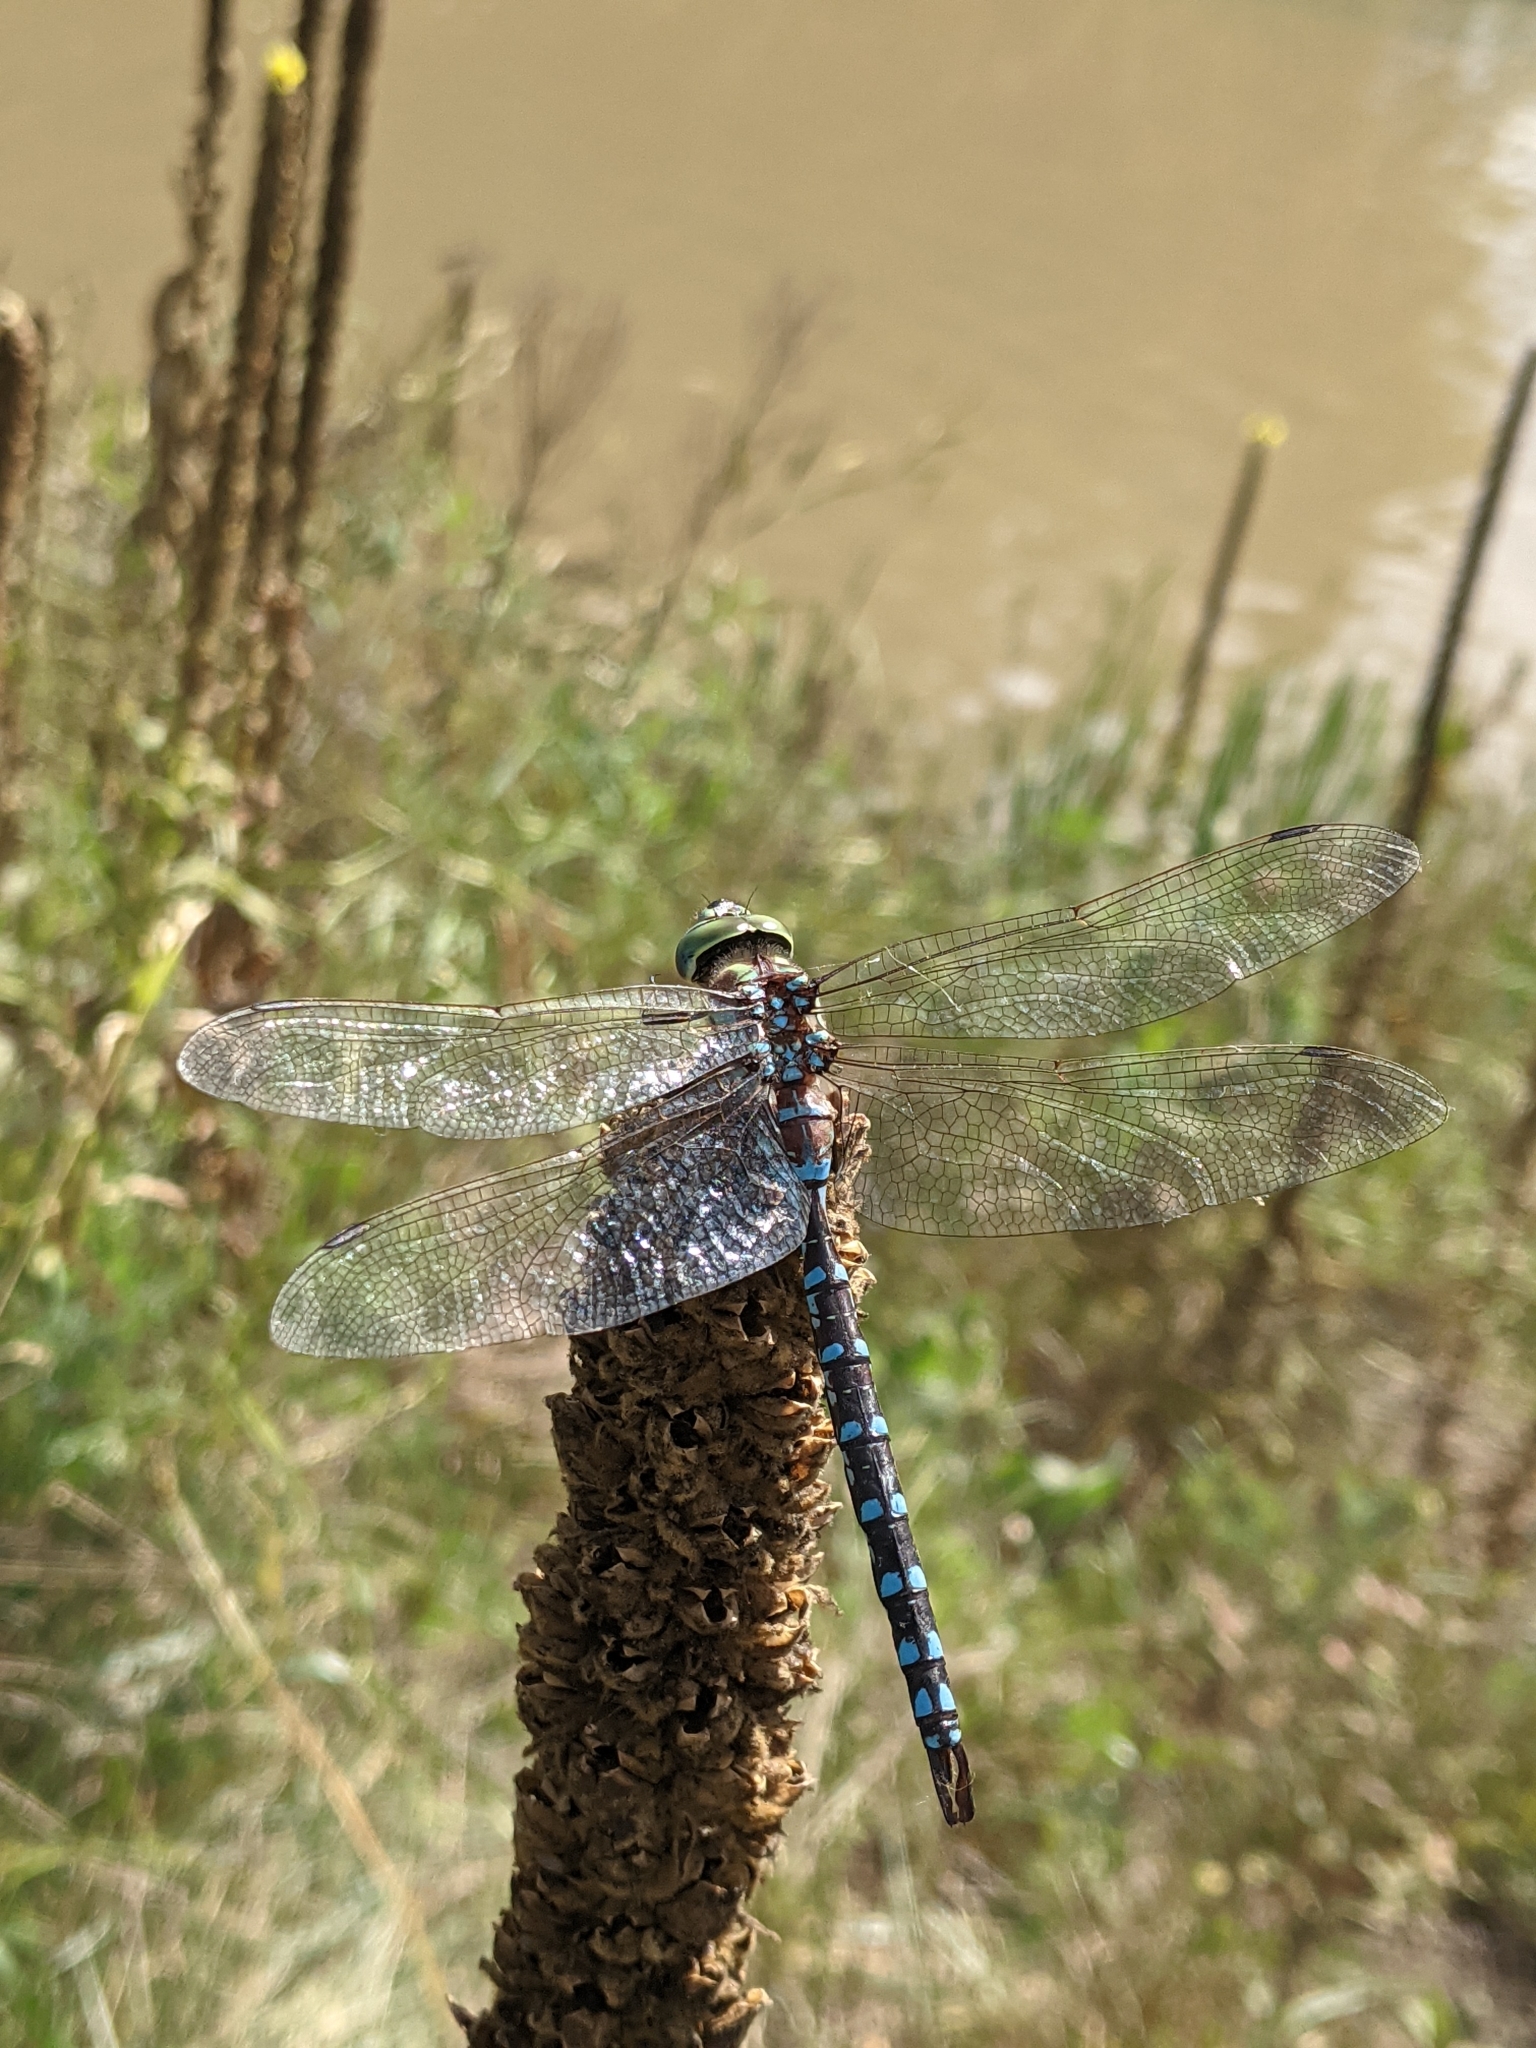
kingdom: Animalia
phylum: Arthropoda
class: Insecta
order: Odonata
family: Aeshnidae
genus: Aeshna
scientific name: Aeshna constricta
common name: Lance-tipped darner
